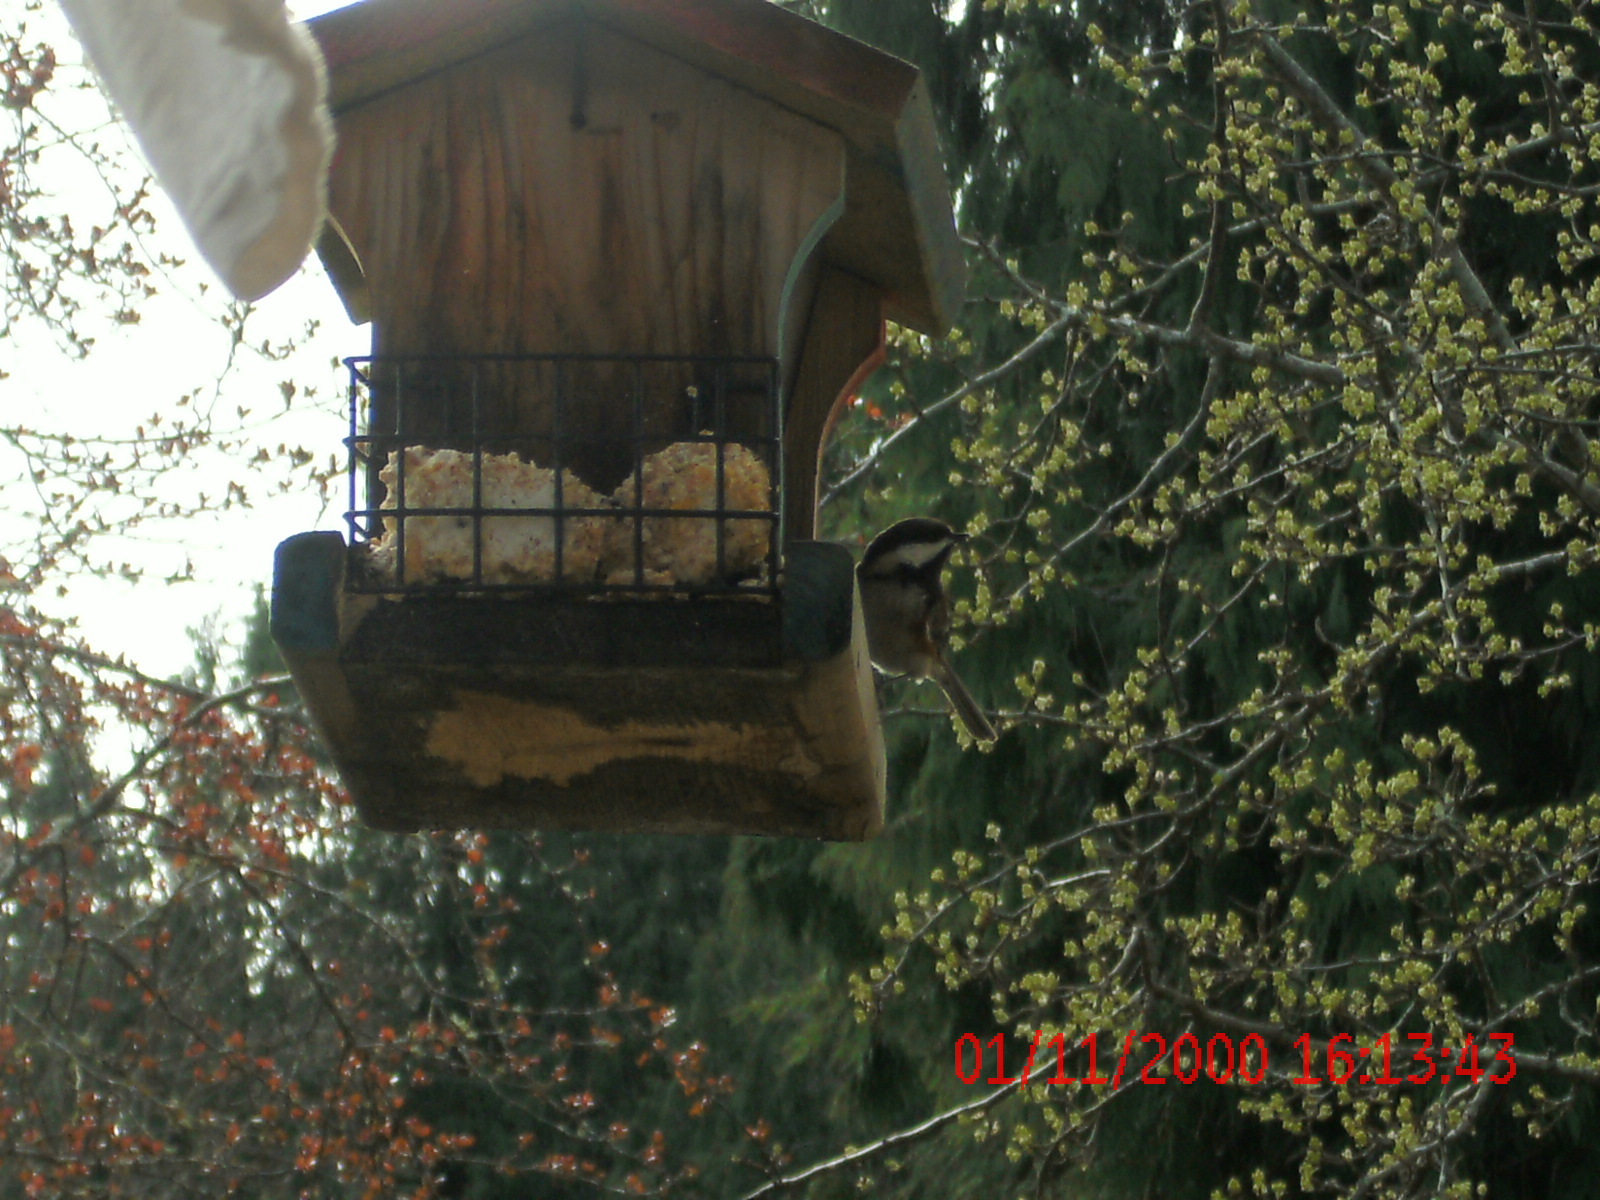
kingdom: Animalia
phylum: Chordata
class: Aves
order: Passeriformes
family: Paridae
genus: Poecile
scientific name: Poecile rufescens
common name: Chestnut-backed chickadee
